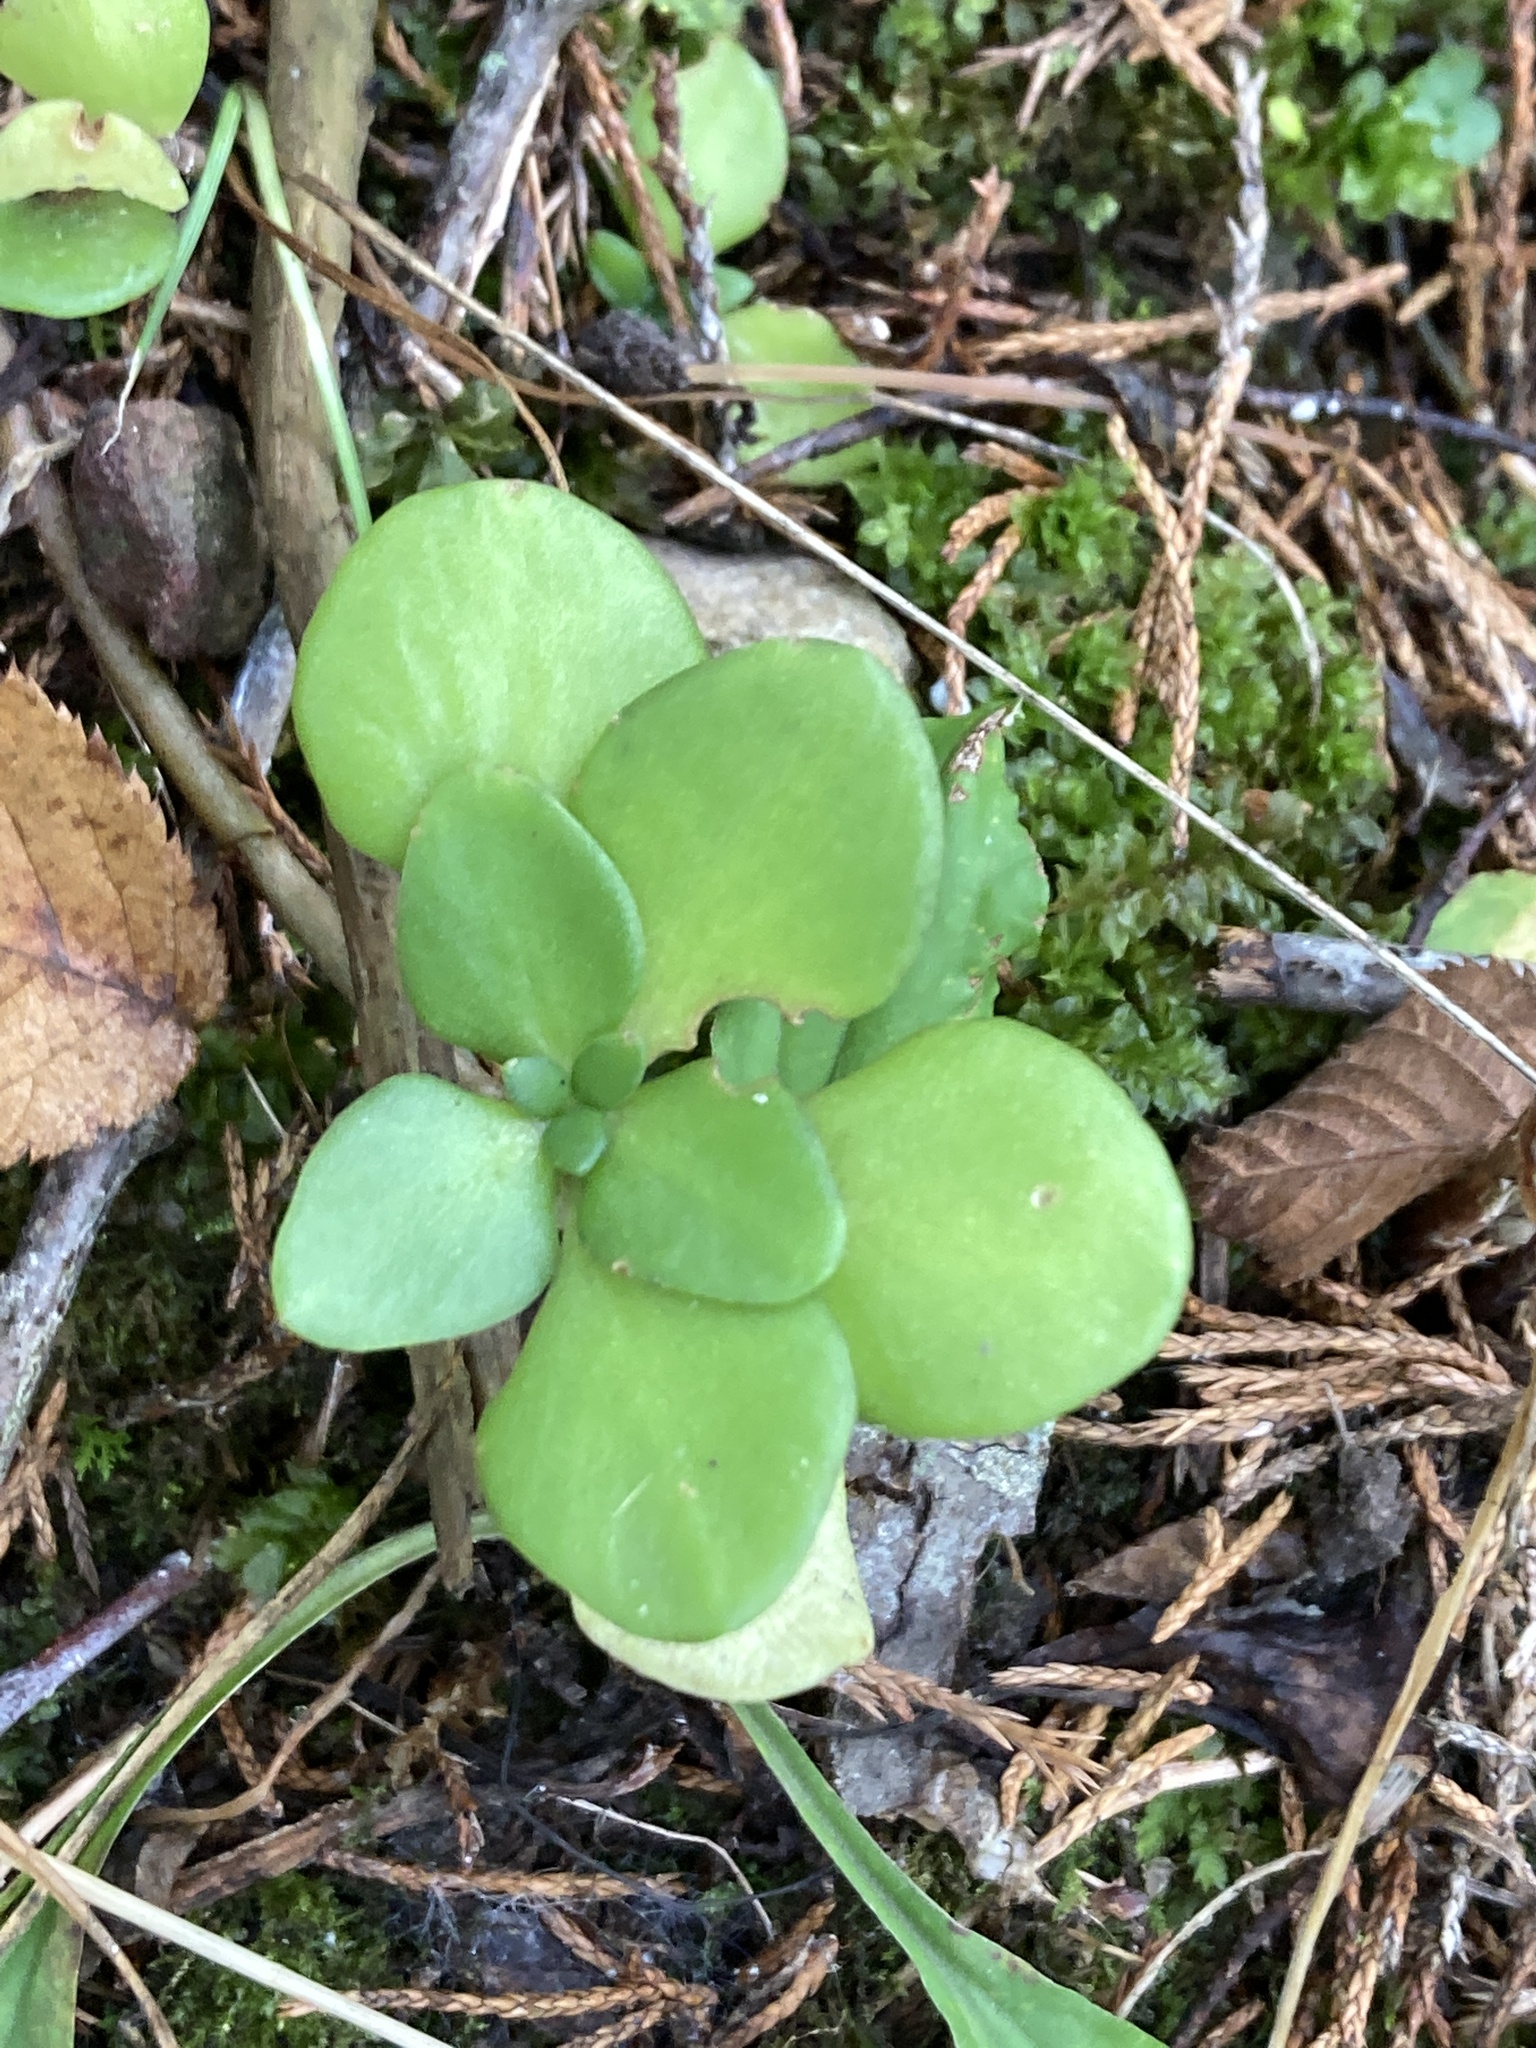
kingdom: Plantae
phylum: Tracheophyta
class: Magnoliopsida
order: Saxifragales
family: Crassulaceae
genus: Sedum
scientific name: Sedum ternatum
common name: Wild stonecrop
